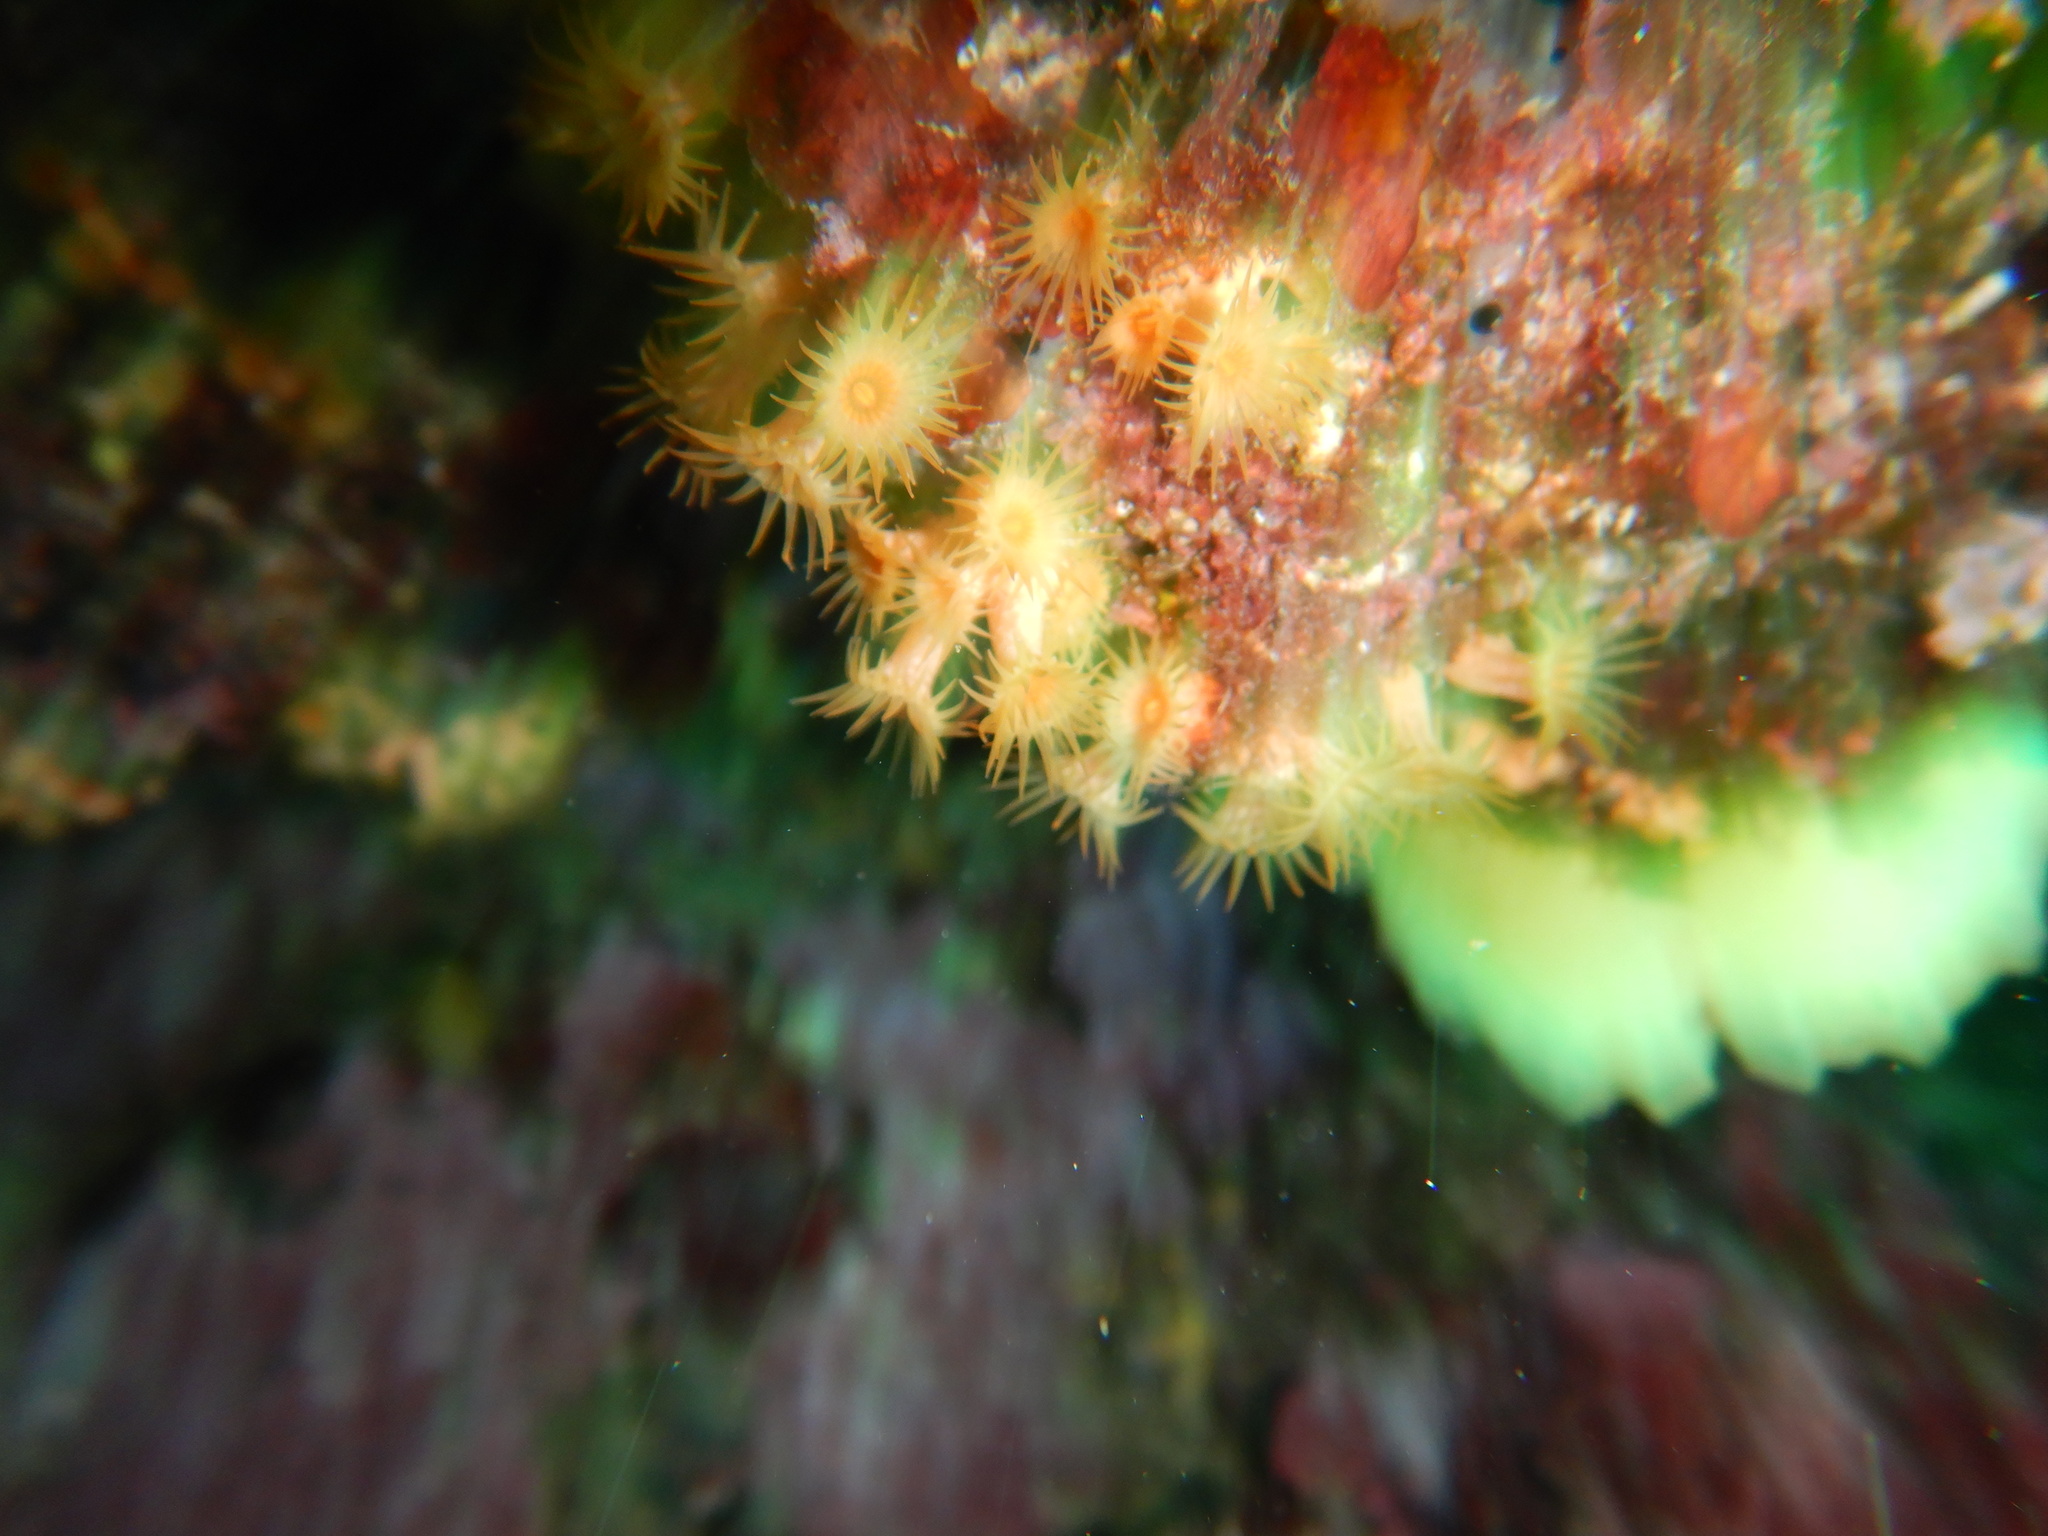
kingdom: Animalia
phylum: Cnidaria
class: Anthozoa
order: Zoantharia
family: Parazoanthidae
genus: Parazoanthus
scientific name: Parazoanthus axinellae
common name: Yellow cluster anemone
